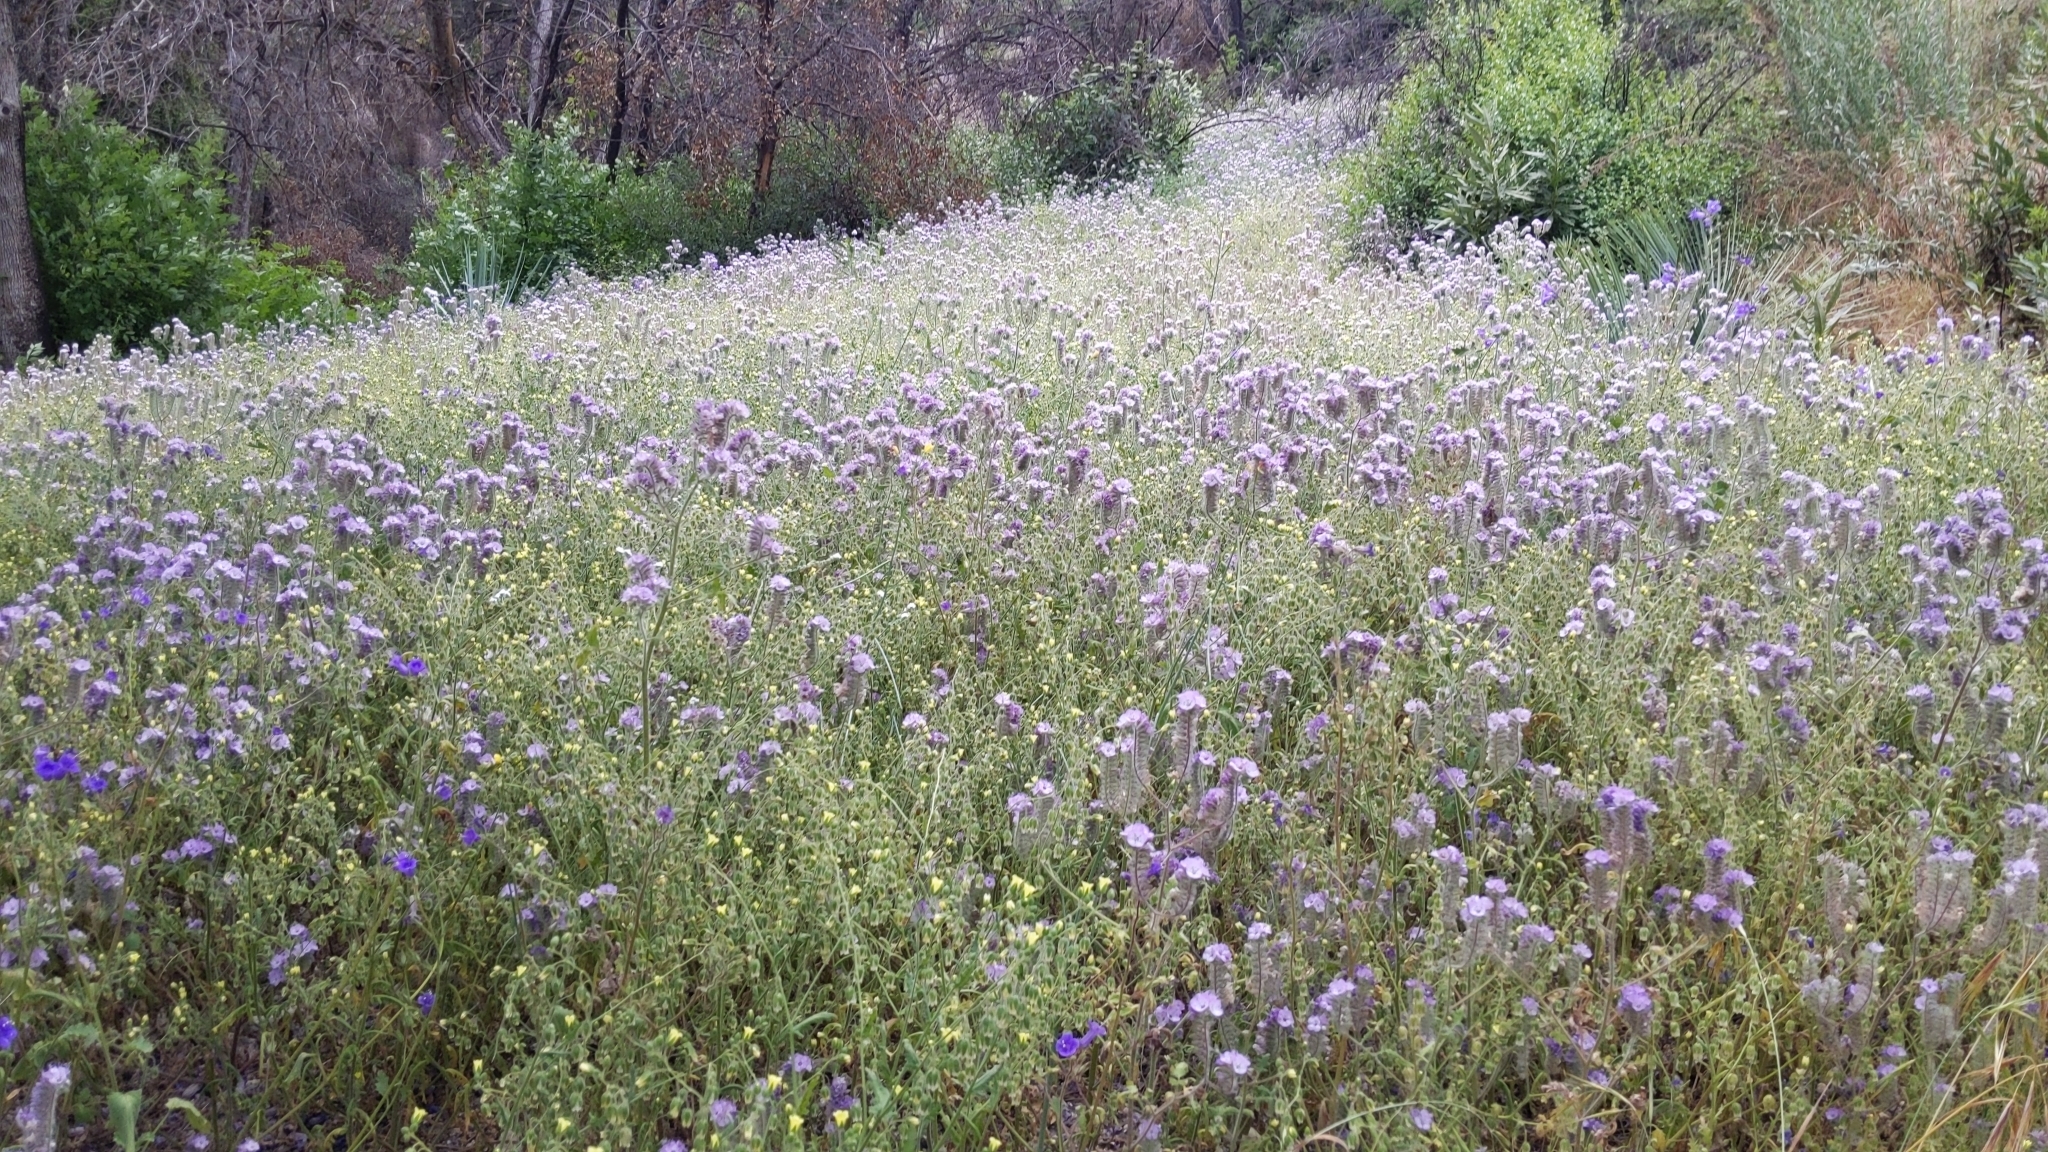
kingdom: Plantae
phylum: Tracheophyta
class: Magnoliopsida
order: Boraginales
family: Hydrophyllaceae
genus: Phacelia
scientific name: Phacelia cicutaria
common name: Caterpillar phacelia
